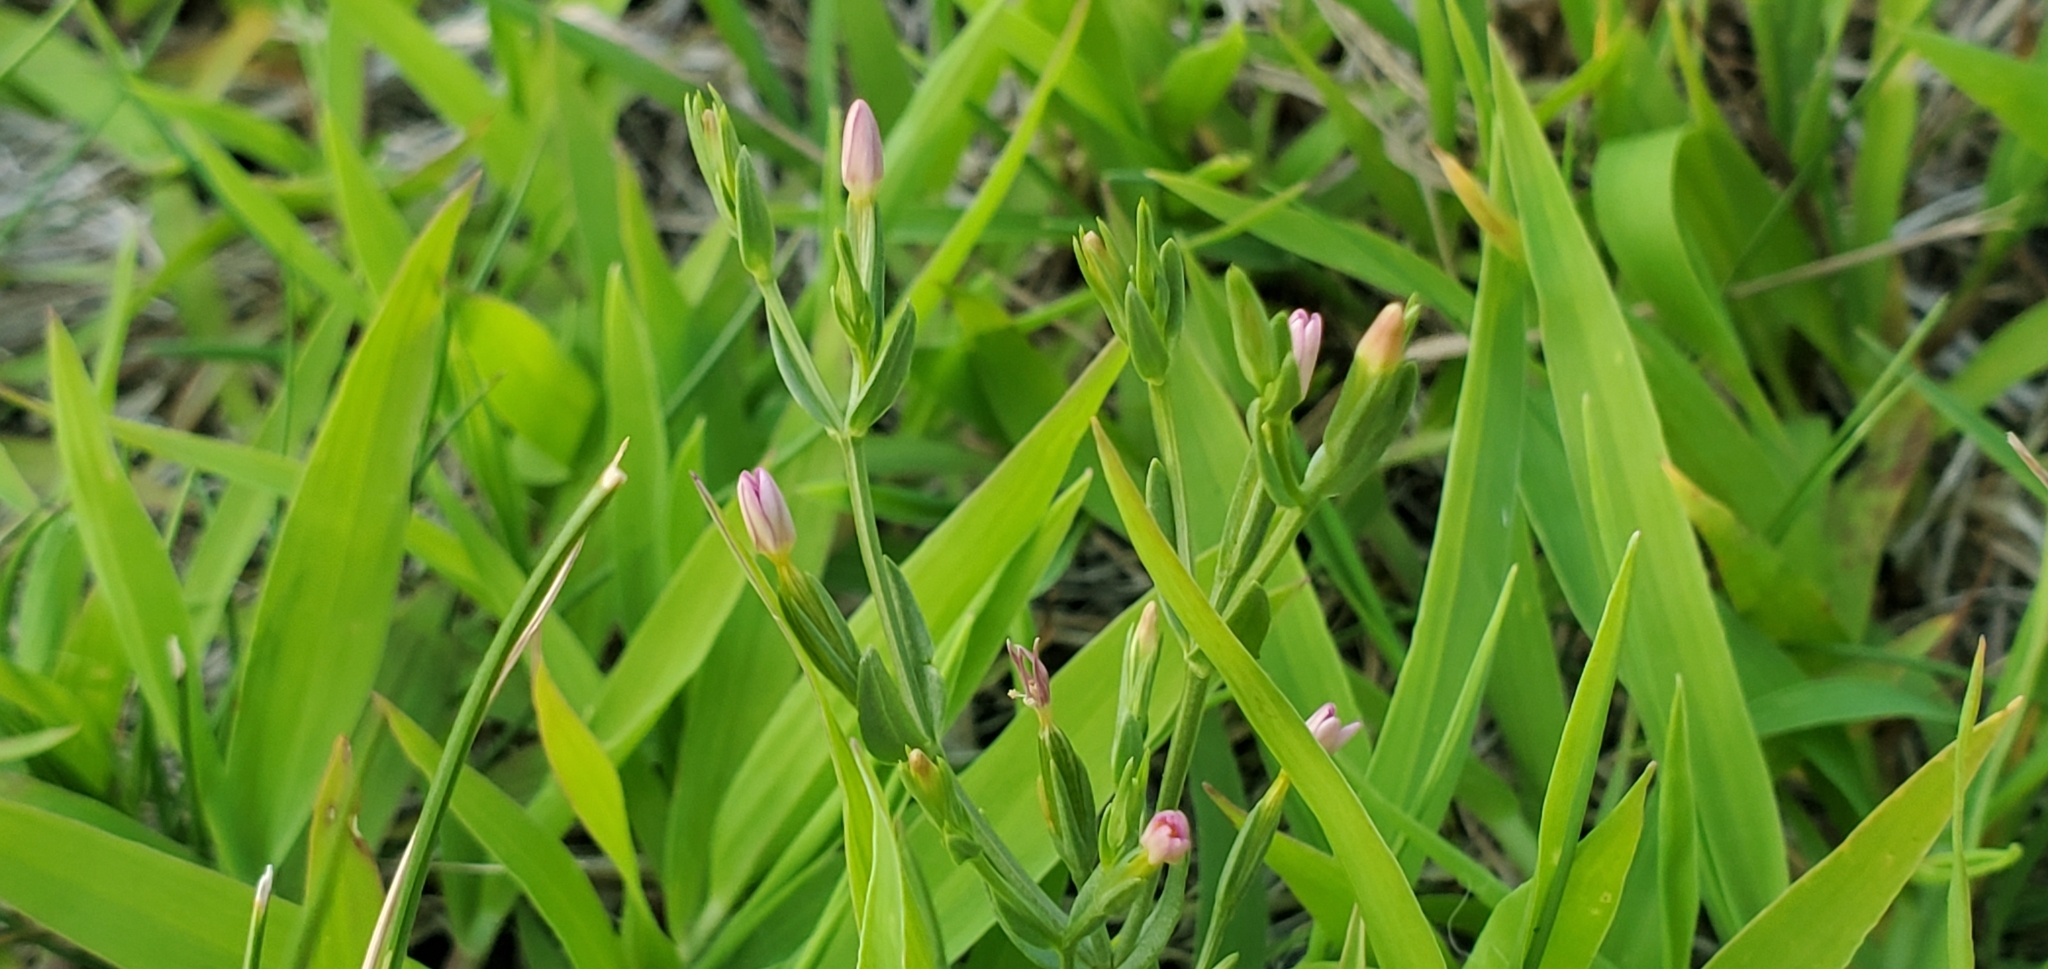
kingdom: Plantae
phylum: Tracheophyta
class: Magnoliopsida
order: Gentianales
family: Gentianaceae
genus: Centaurium
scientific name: Centaurium pulchellum
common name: Lesser centaury
